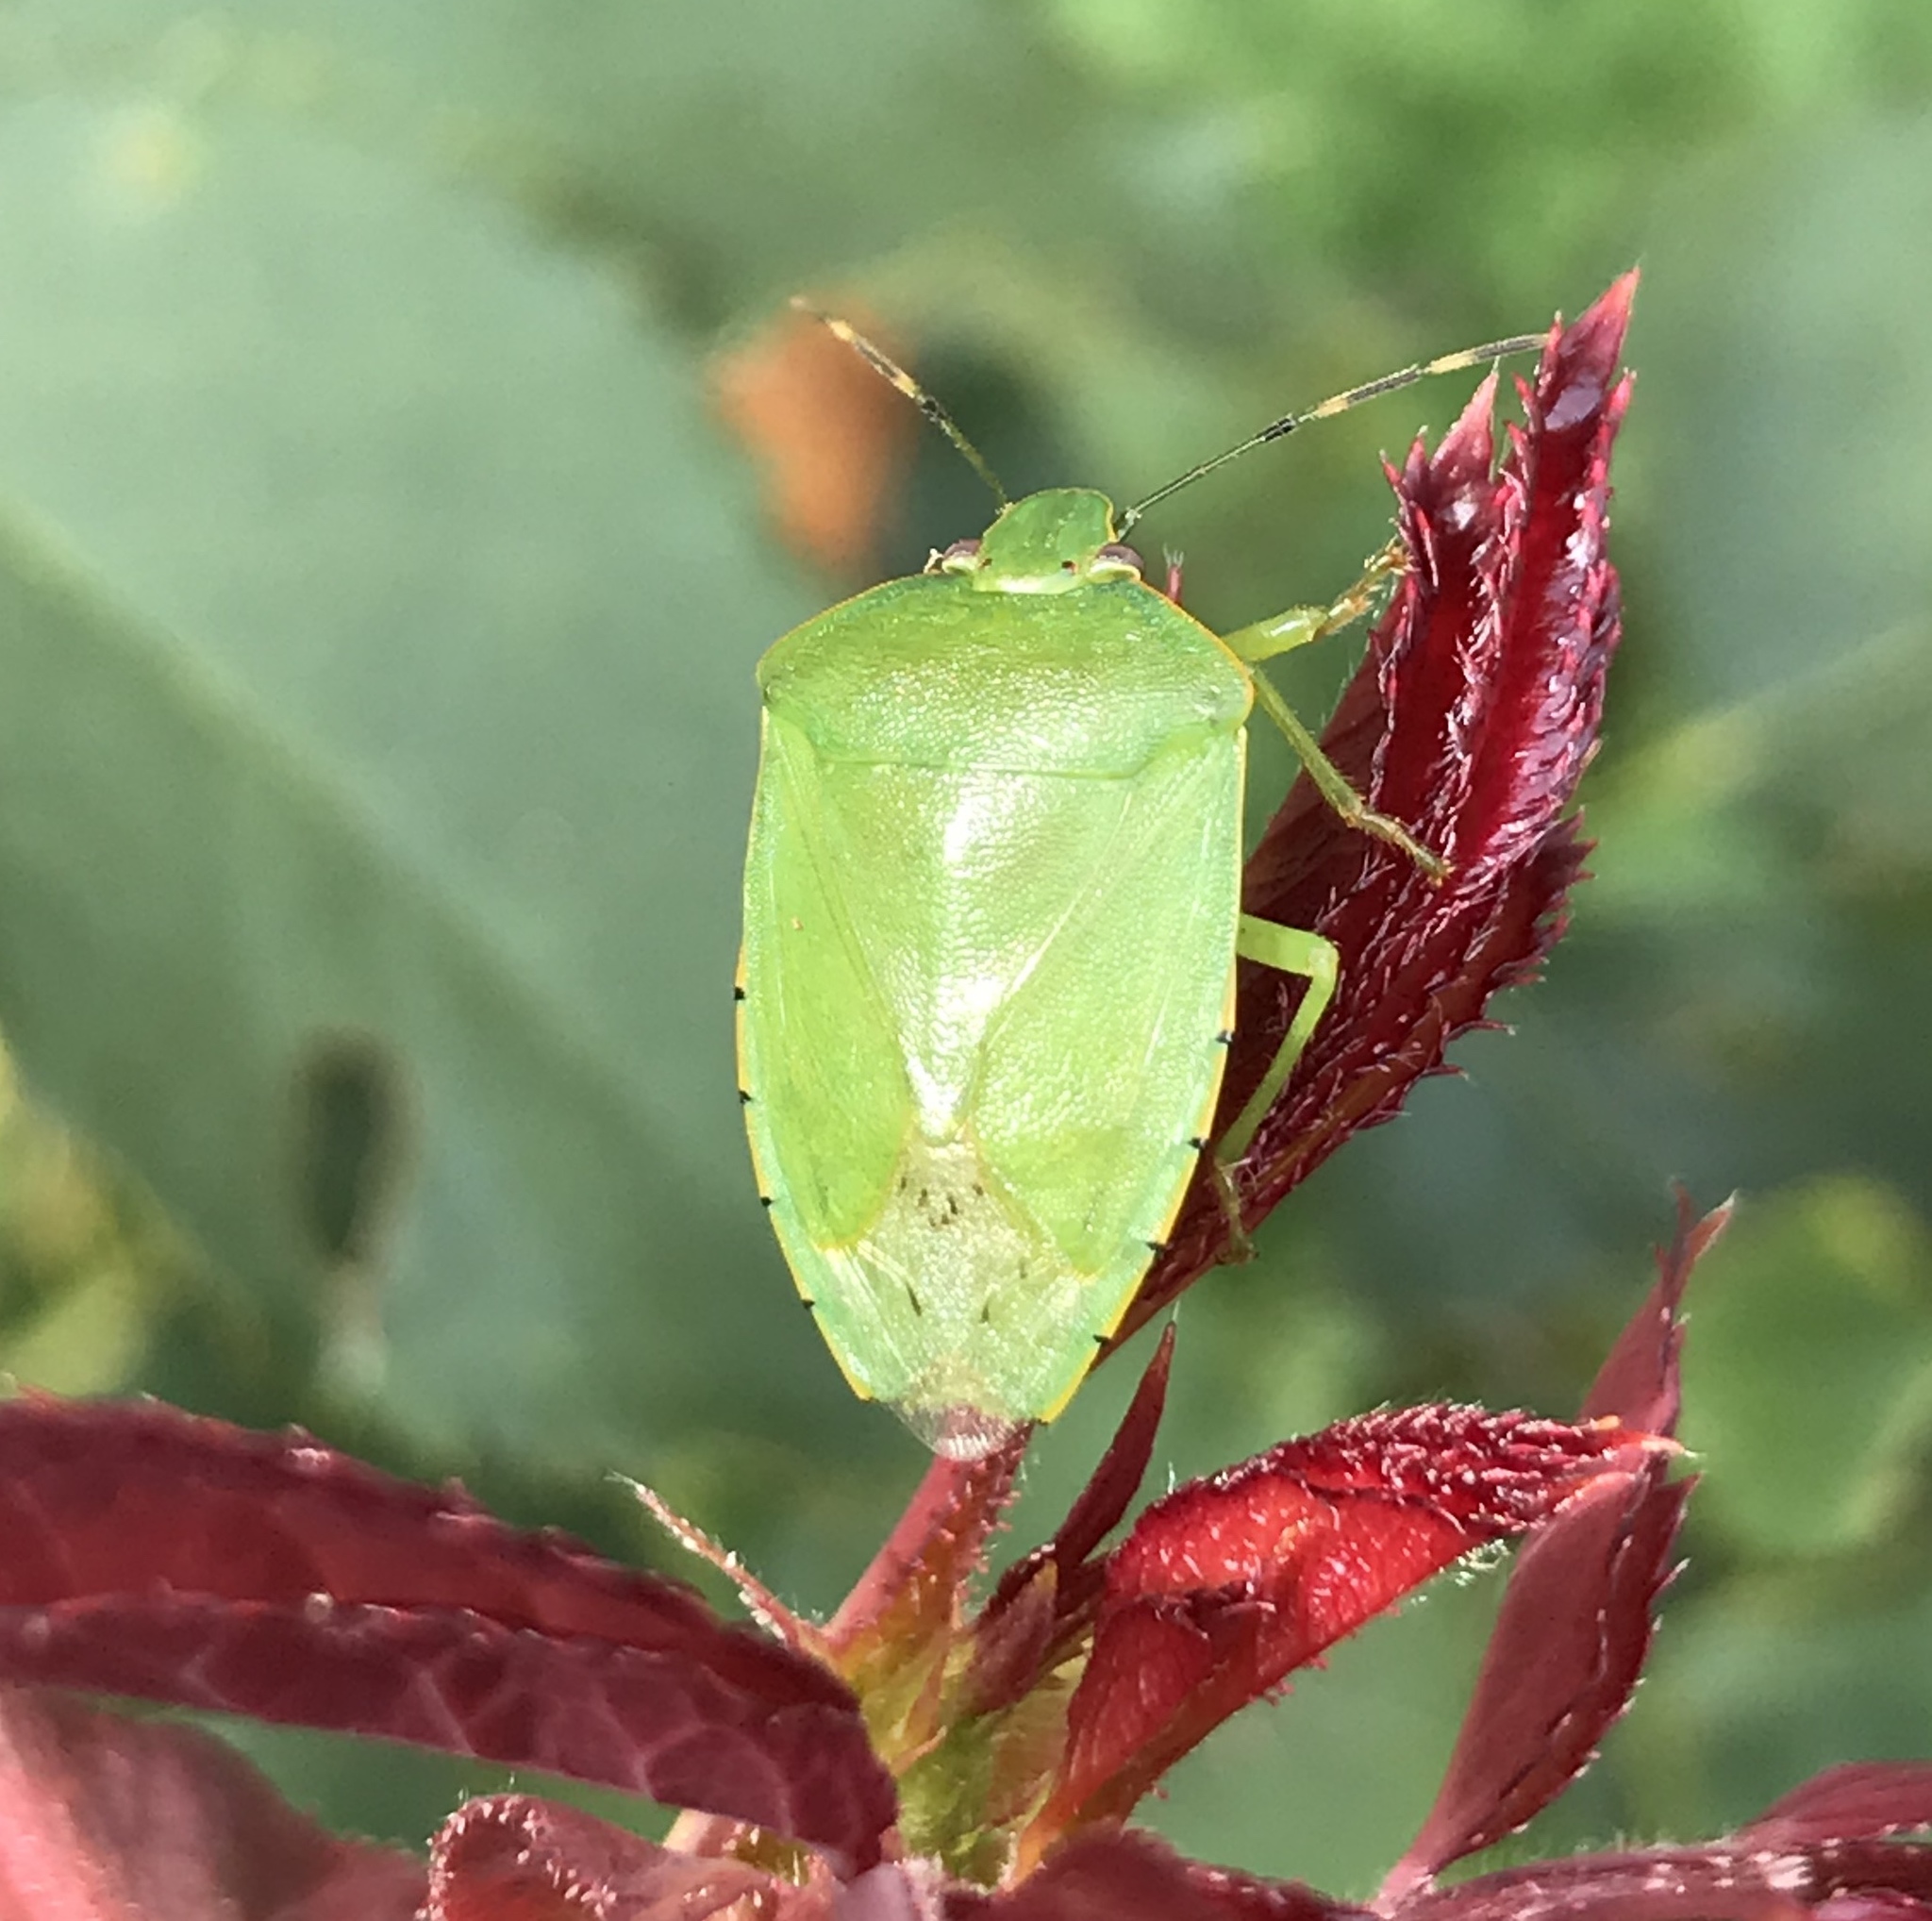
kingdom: Animalia
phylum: Arthropoda
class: Insecta
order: Hemiptera
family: Pentatomidae
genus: Chinavia
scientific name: Chinavia hilaris
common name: Green stink bug
